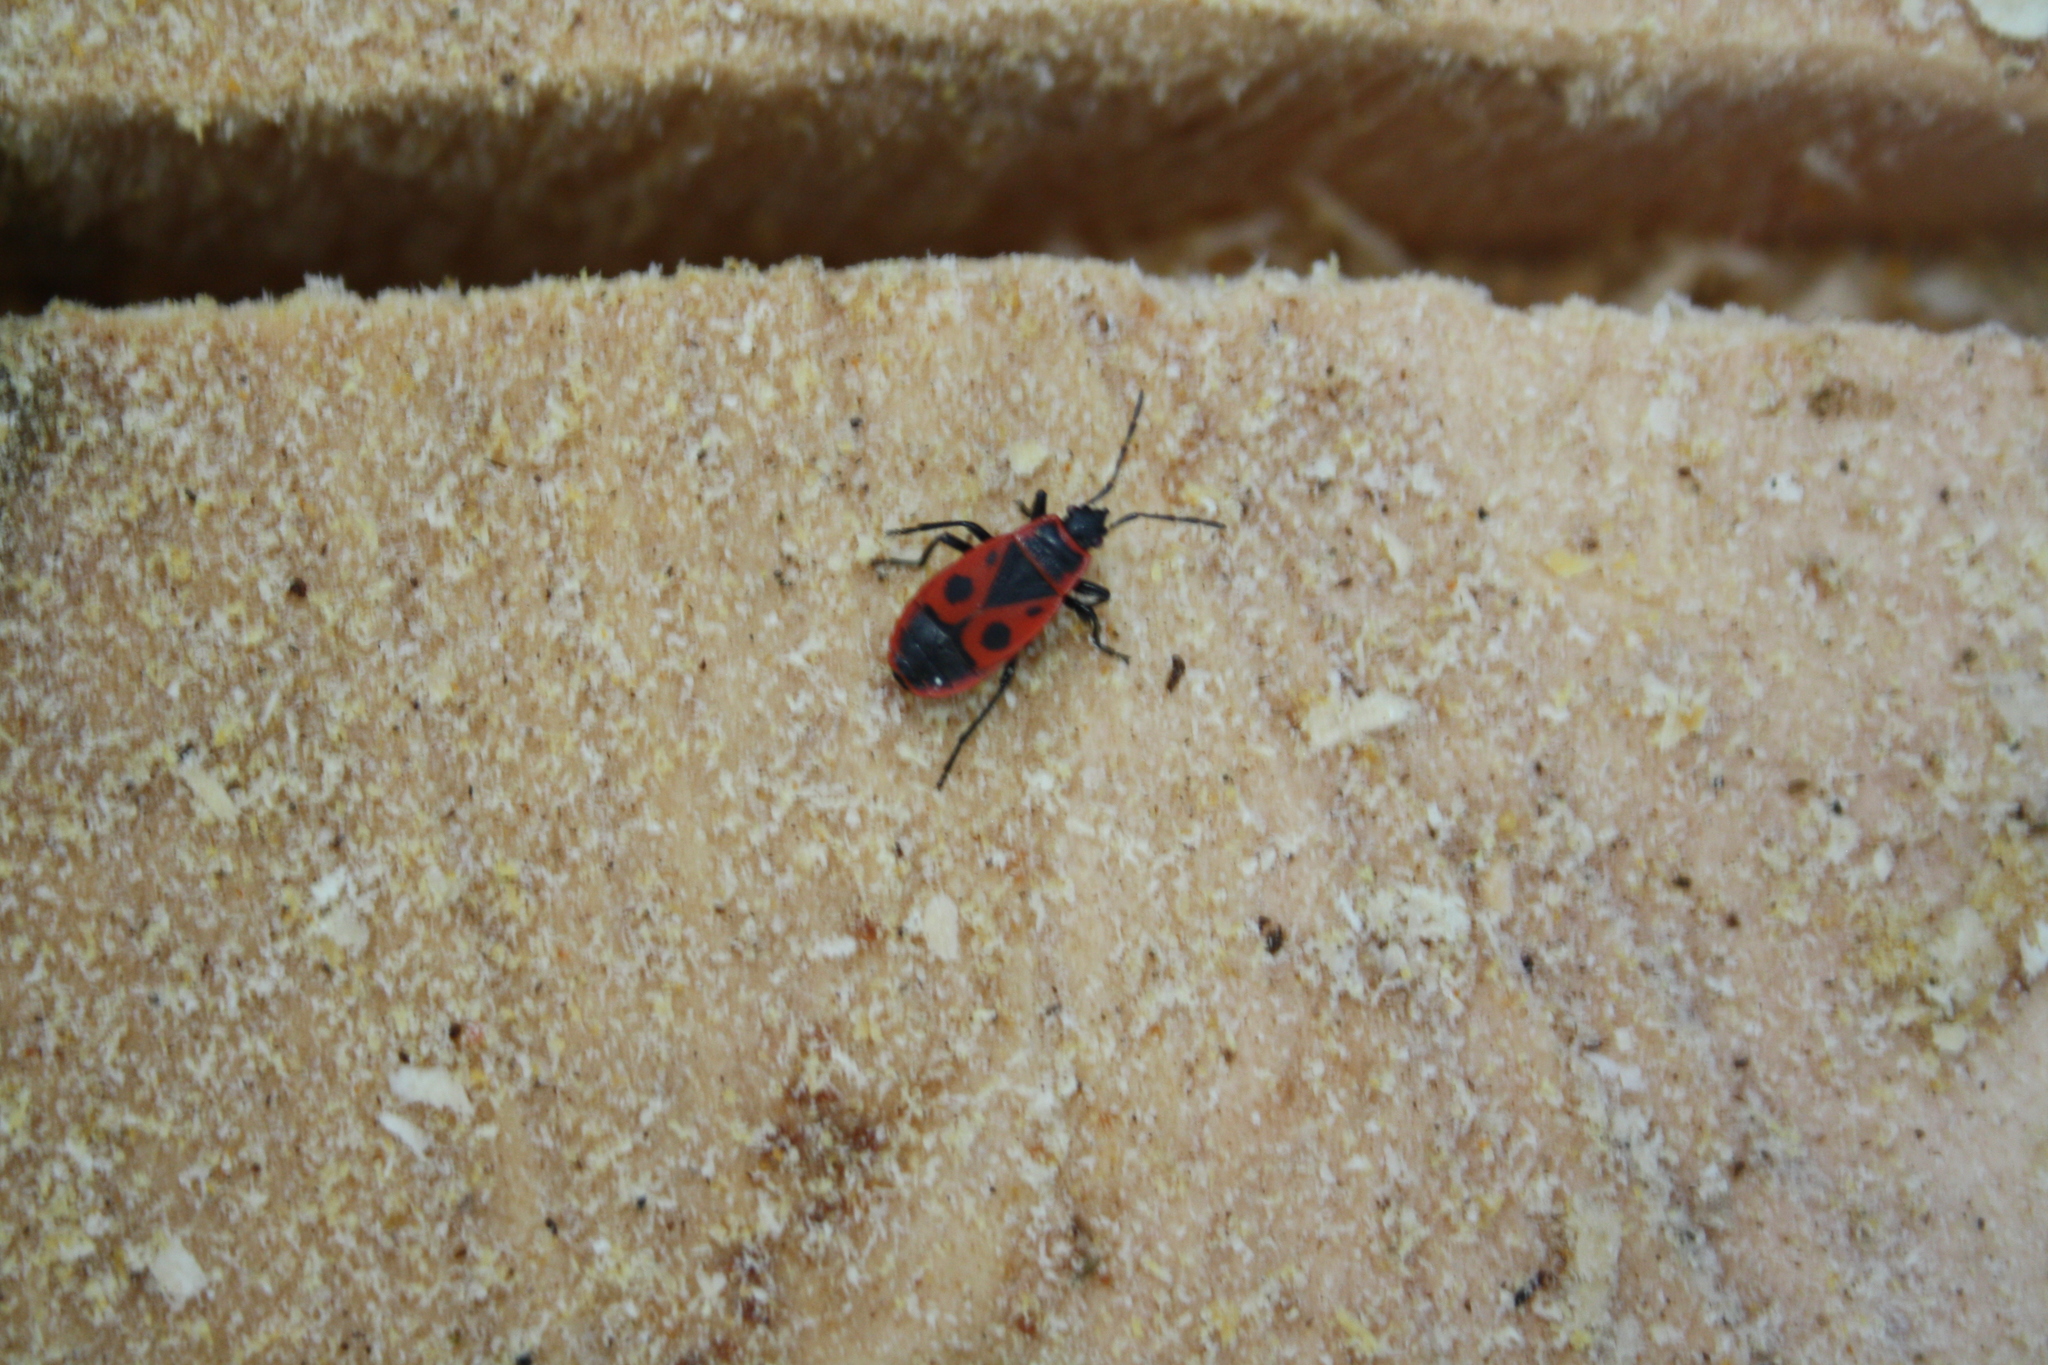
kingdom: Animalia
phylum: Arthropoda
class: Insecta
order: Hemiptera
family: Pyrrhocoridae
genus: Pyrrhocoris
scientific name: Pyrrhocoris apterus
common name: Firebug
